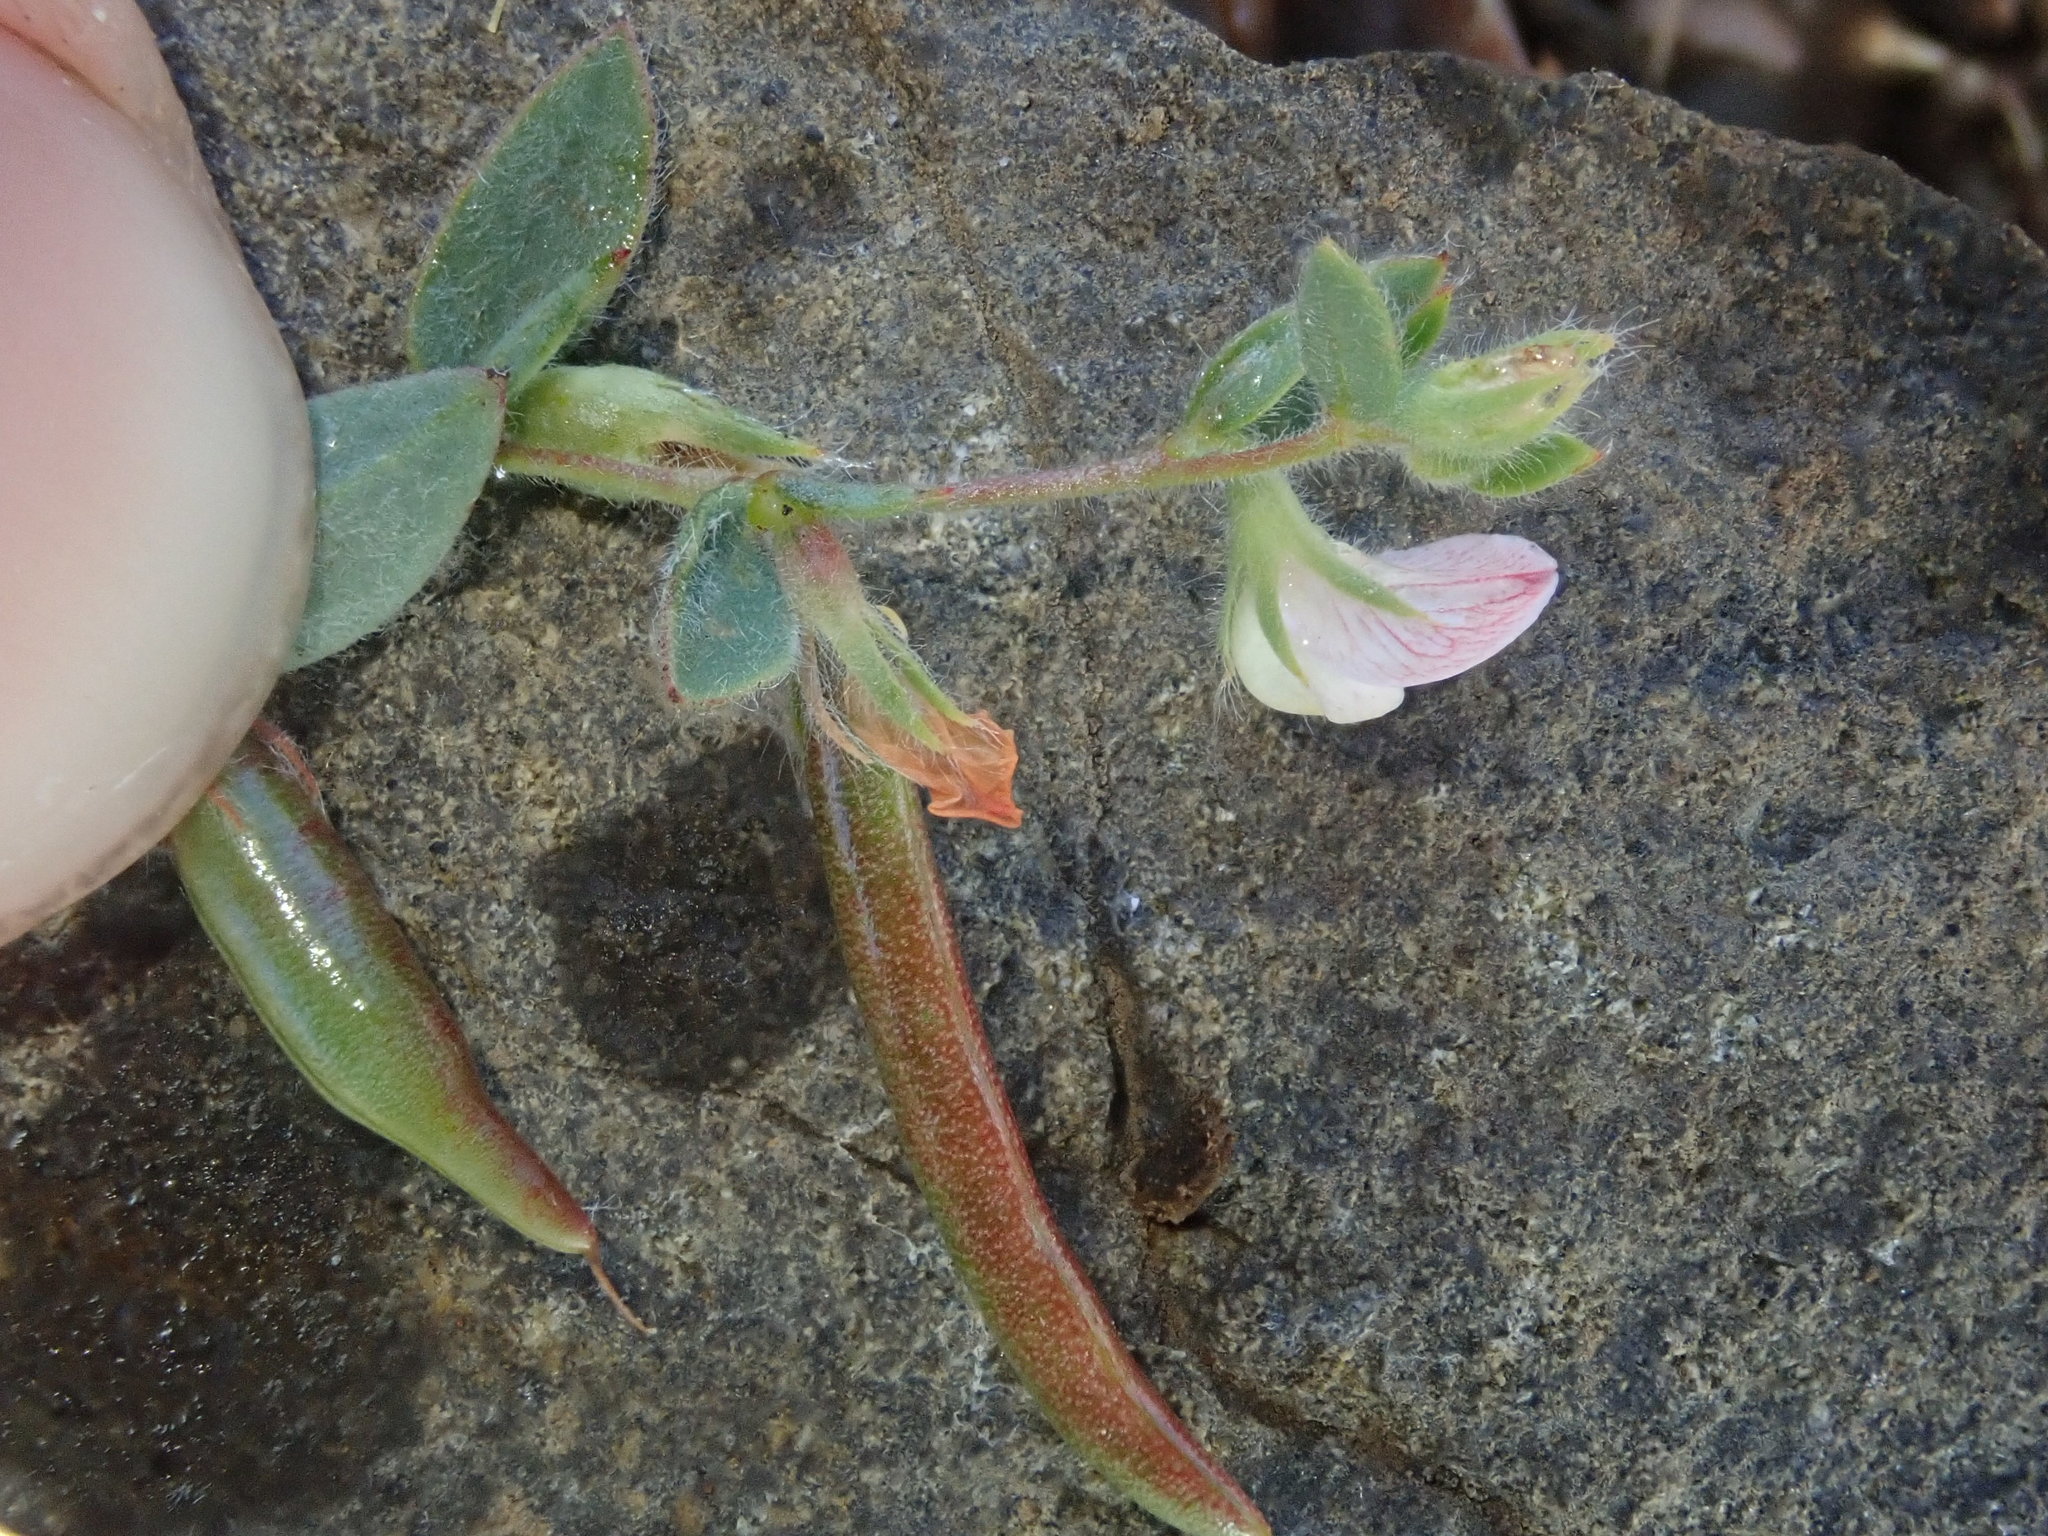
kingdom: Plantae
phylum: Tracheophyta
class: Magnoliopsida
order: Fabales
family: Fabaceae
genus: Acmispon
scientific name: Acmispon americanus
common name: American bird's-foot trefoil
